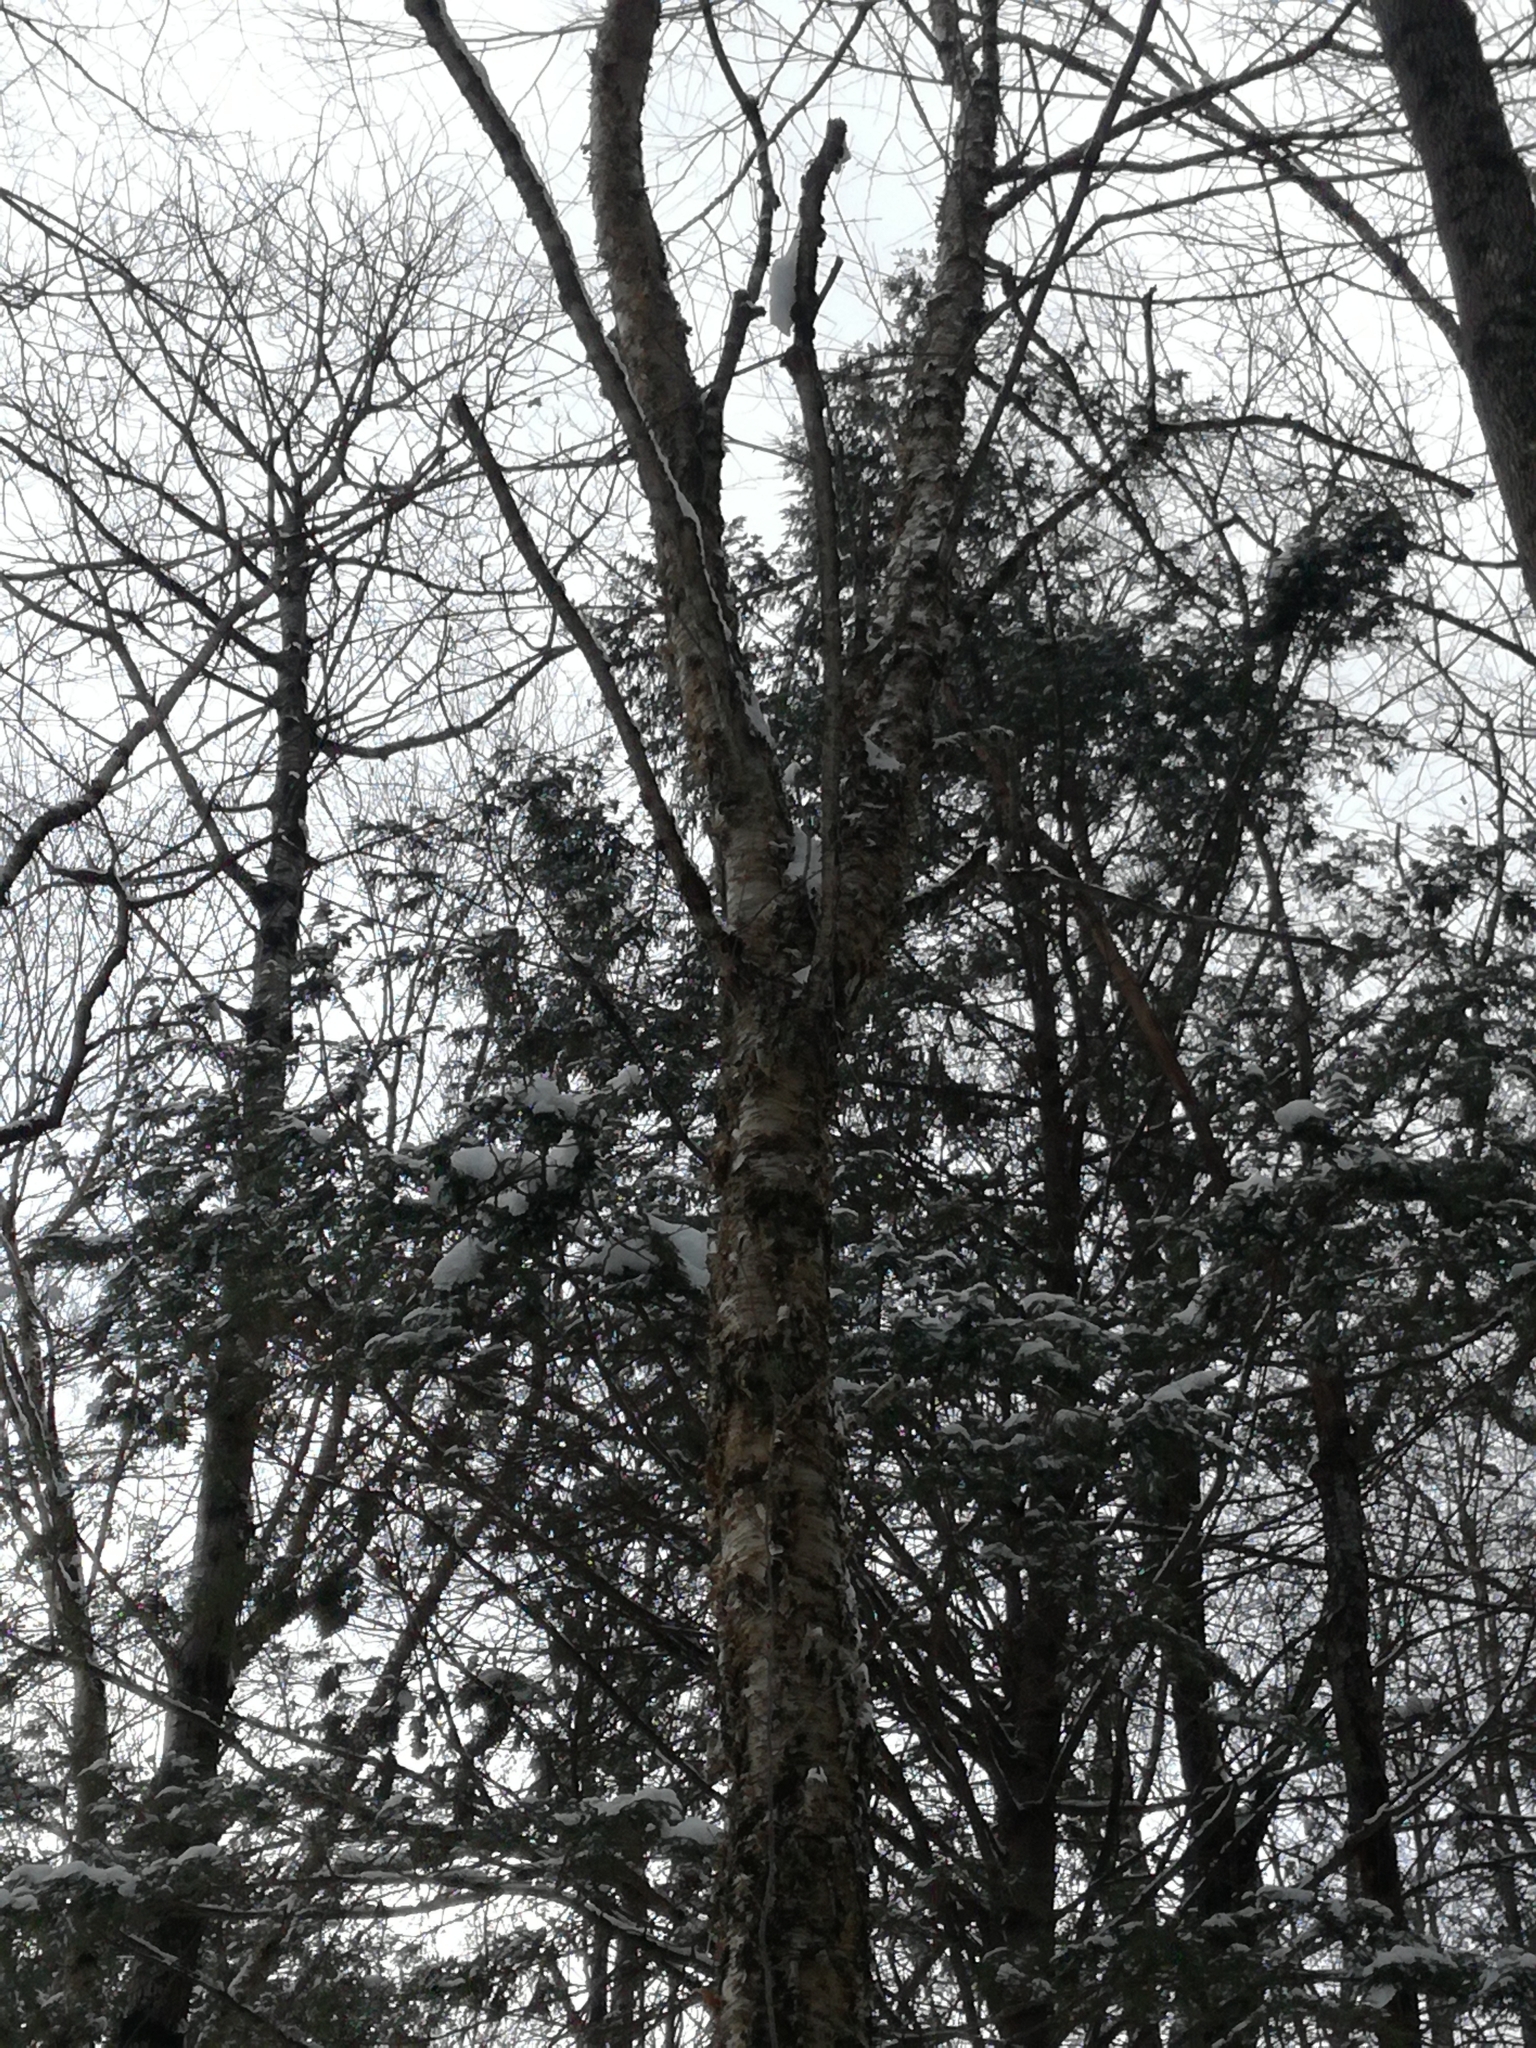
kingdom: Plantae
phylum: Tracheophyta
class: Magnoliopsida
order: Fagales
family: Betulaceae
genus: Betula
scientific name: Betula alleghaniensis
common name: Yellow birch
